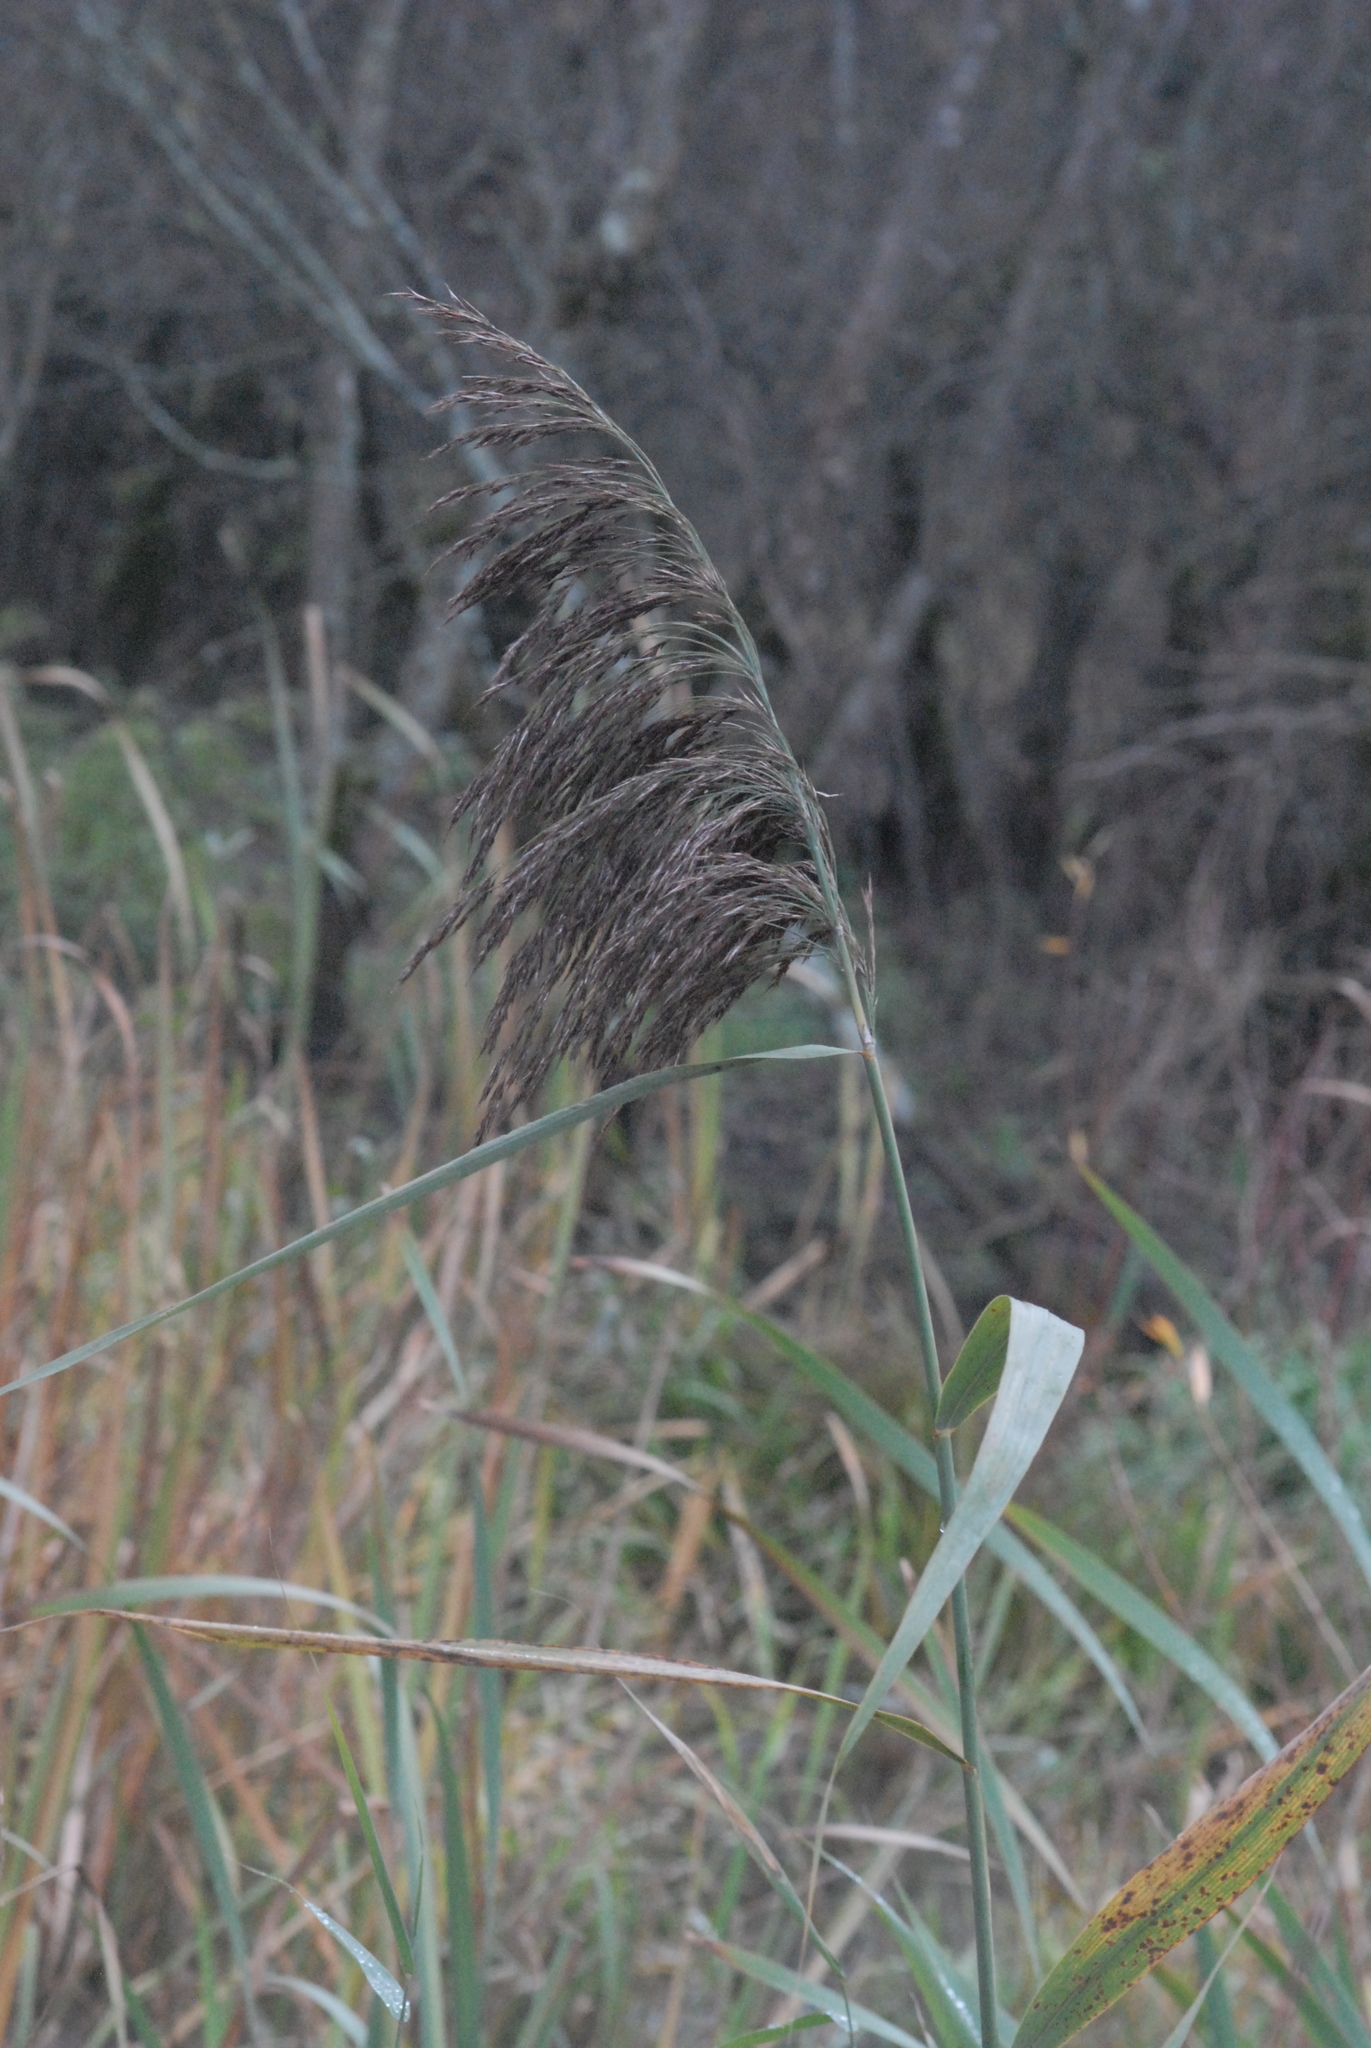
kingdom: Plantae
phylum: Tracheophyta
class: Liliopsida
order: Poales
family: Poaceae
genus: Phragmites
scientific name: Phragmites australis
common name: Common reed
